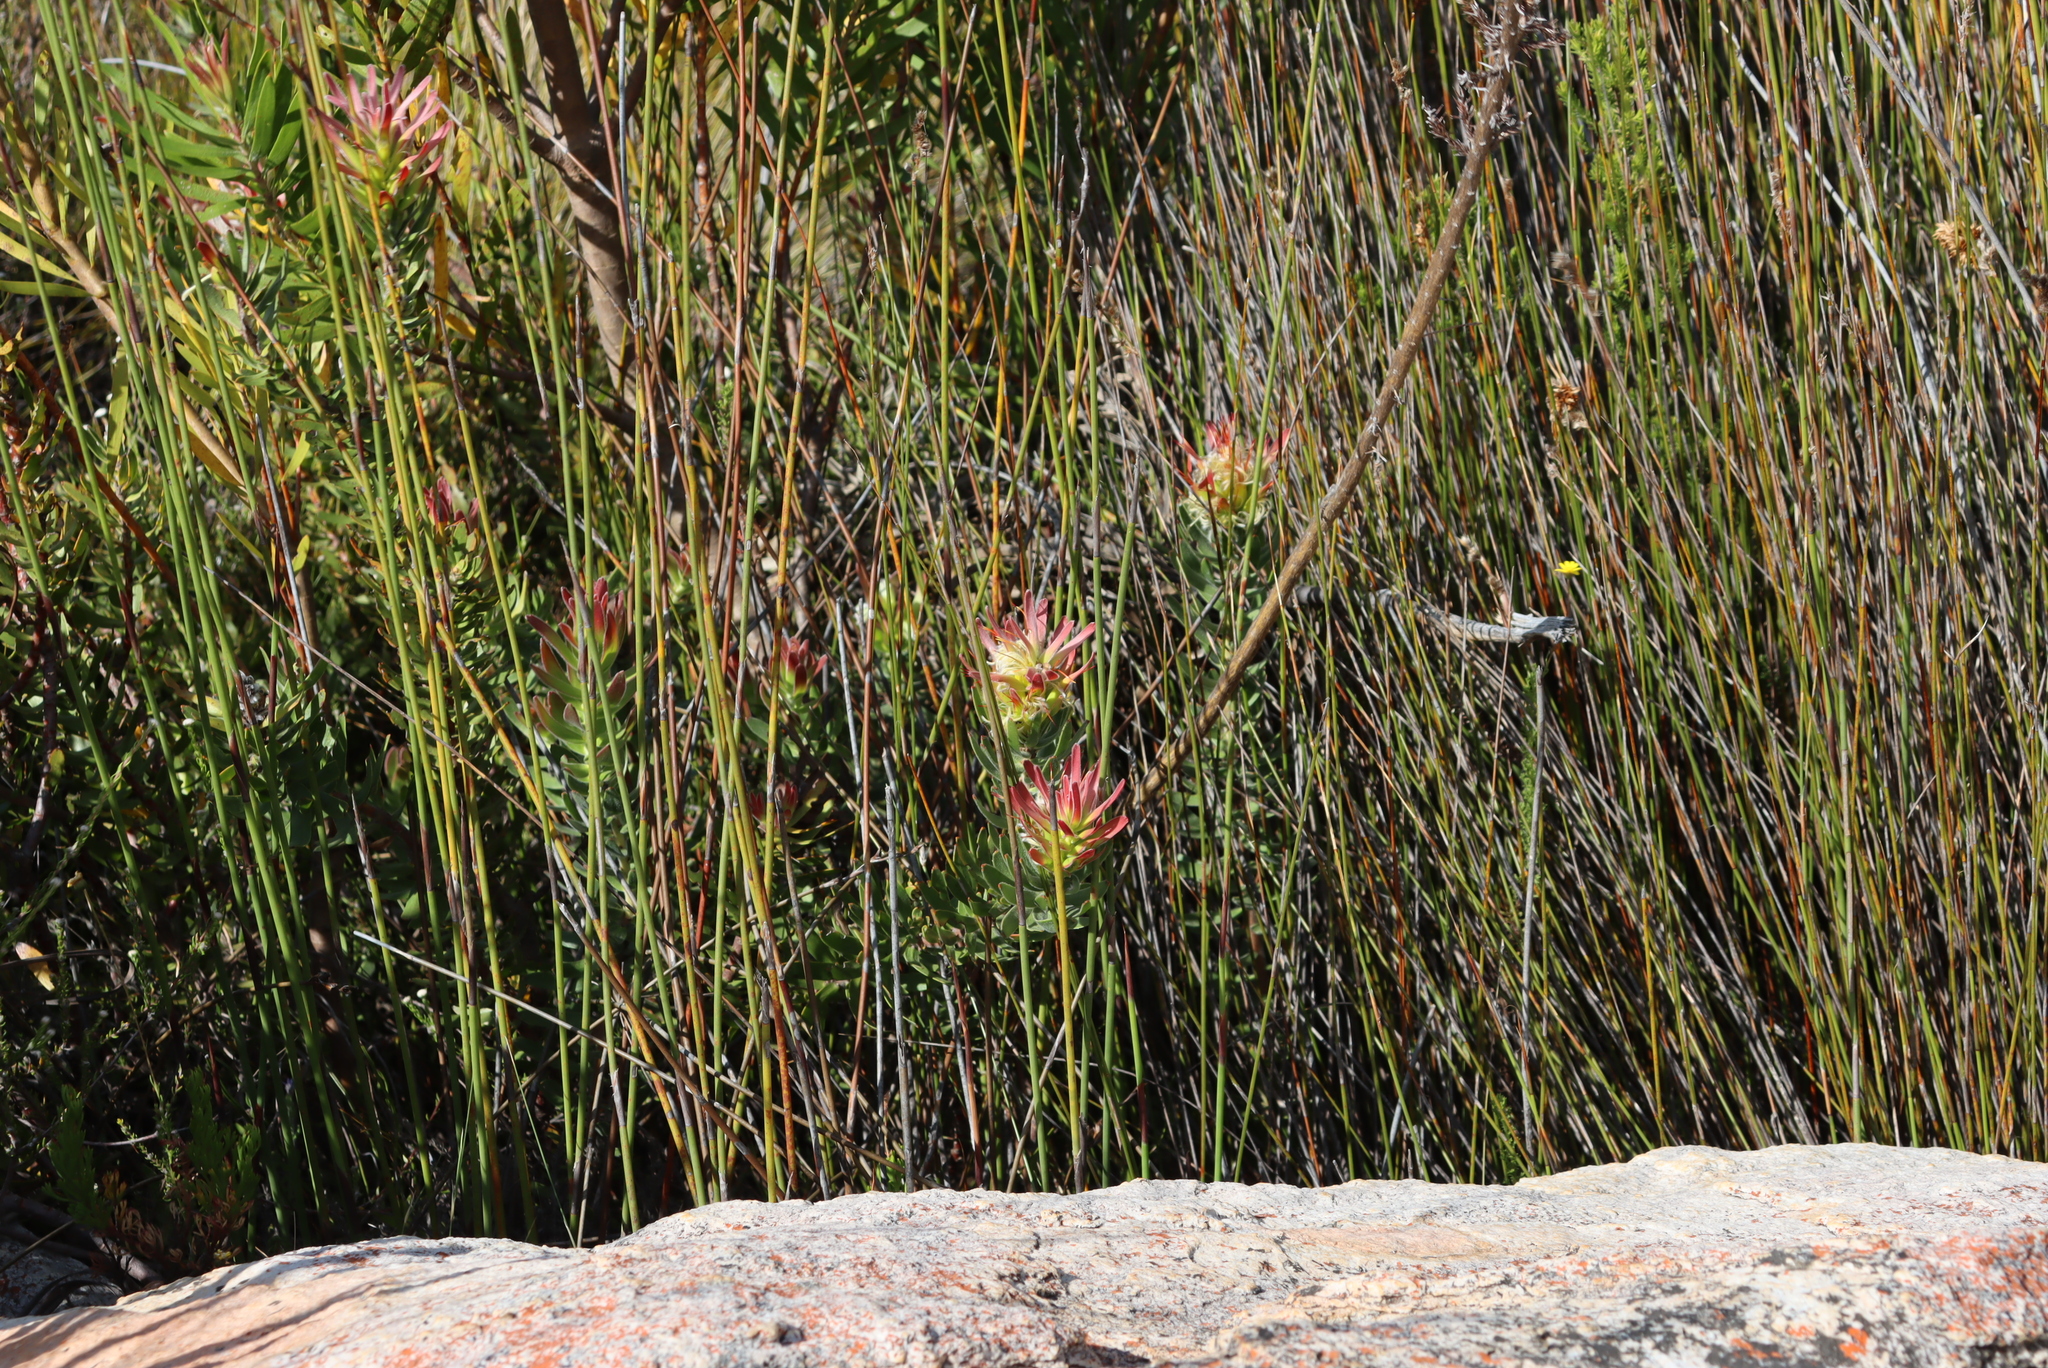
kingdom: Plantae
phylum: Tracheophyta
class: Magnoliopsida
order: Proteales
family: Proteaceae
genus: Mimetes
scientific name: Mimetes cucullatus
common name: Common pagoda
